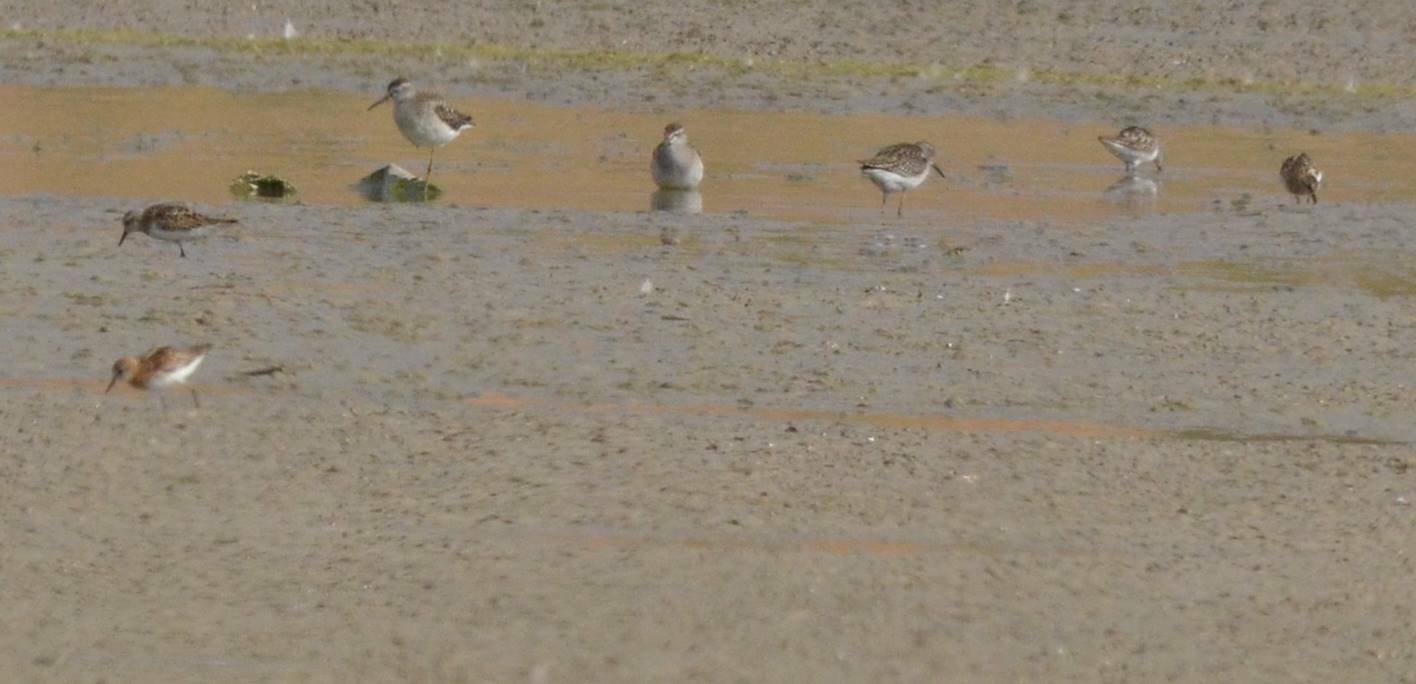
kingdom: Animalia
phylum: Chordata
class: Aves
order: Charadriiformes
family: Scolopacidae
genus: Tringa
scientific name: Tringa glareola
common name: Wood sandpiper
